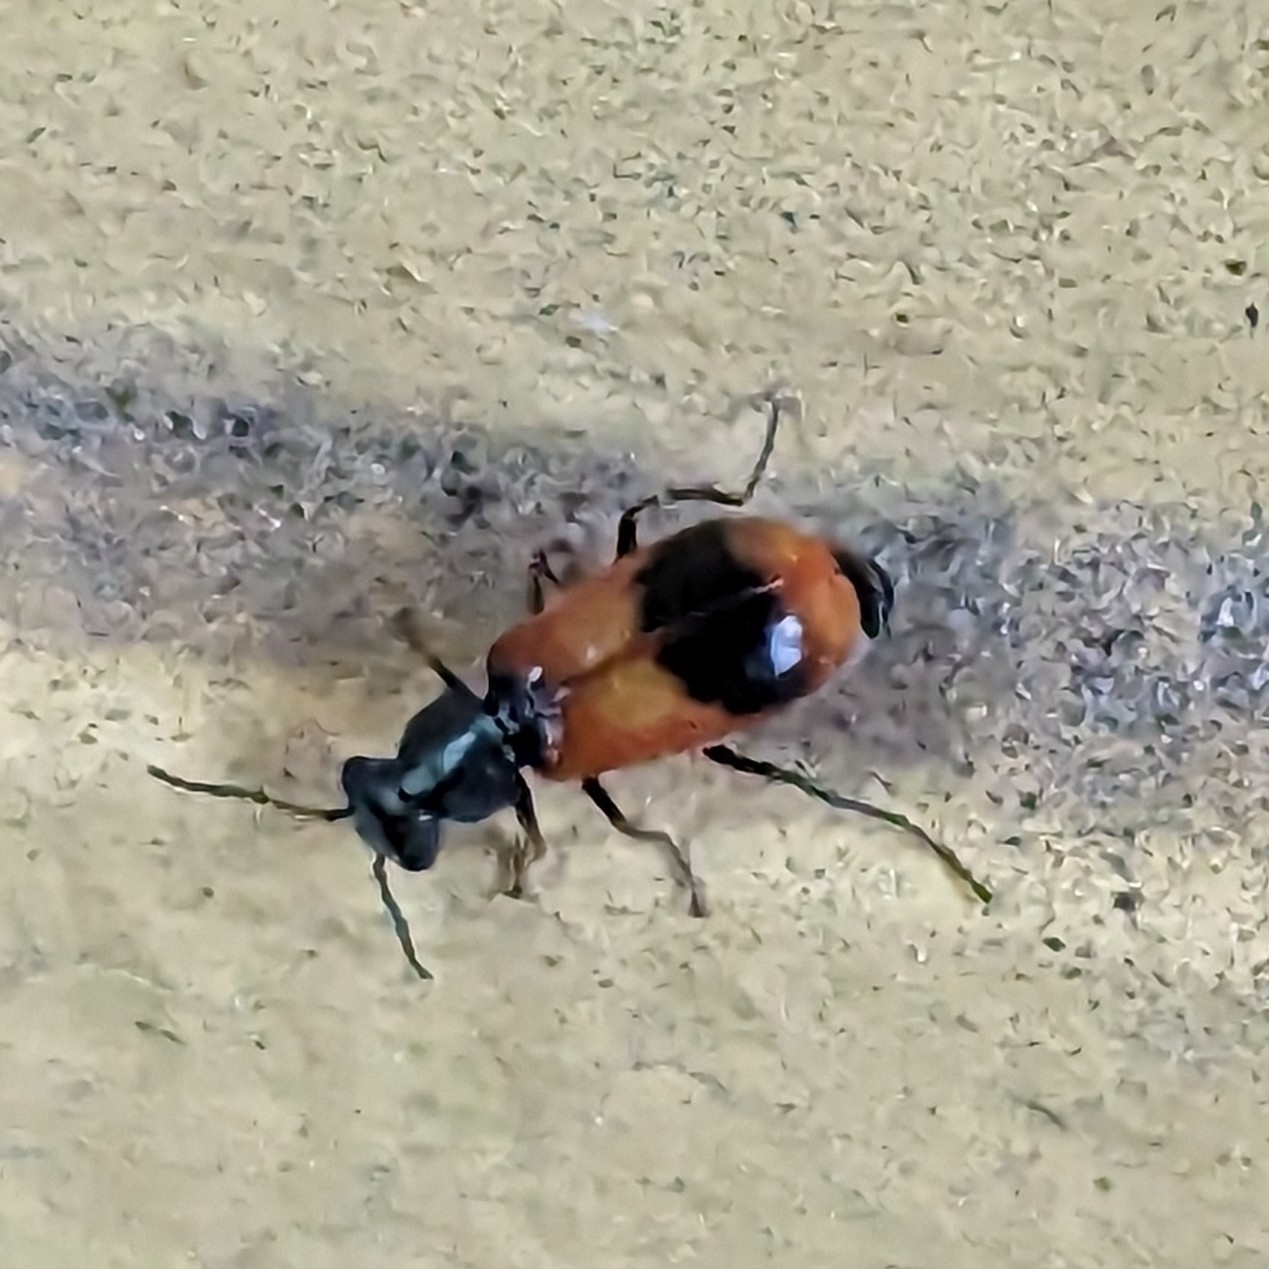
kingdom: Animalia
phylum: Arthropoda
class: Insecta
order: Coleoptera
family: Melyridae
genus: Anthocomus
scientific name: Anthocomus equestris
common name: Black-banded soft-winged flower beetle
